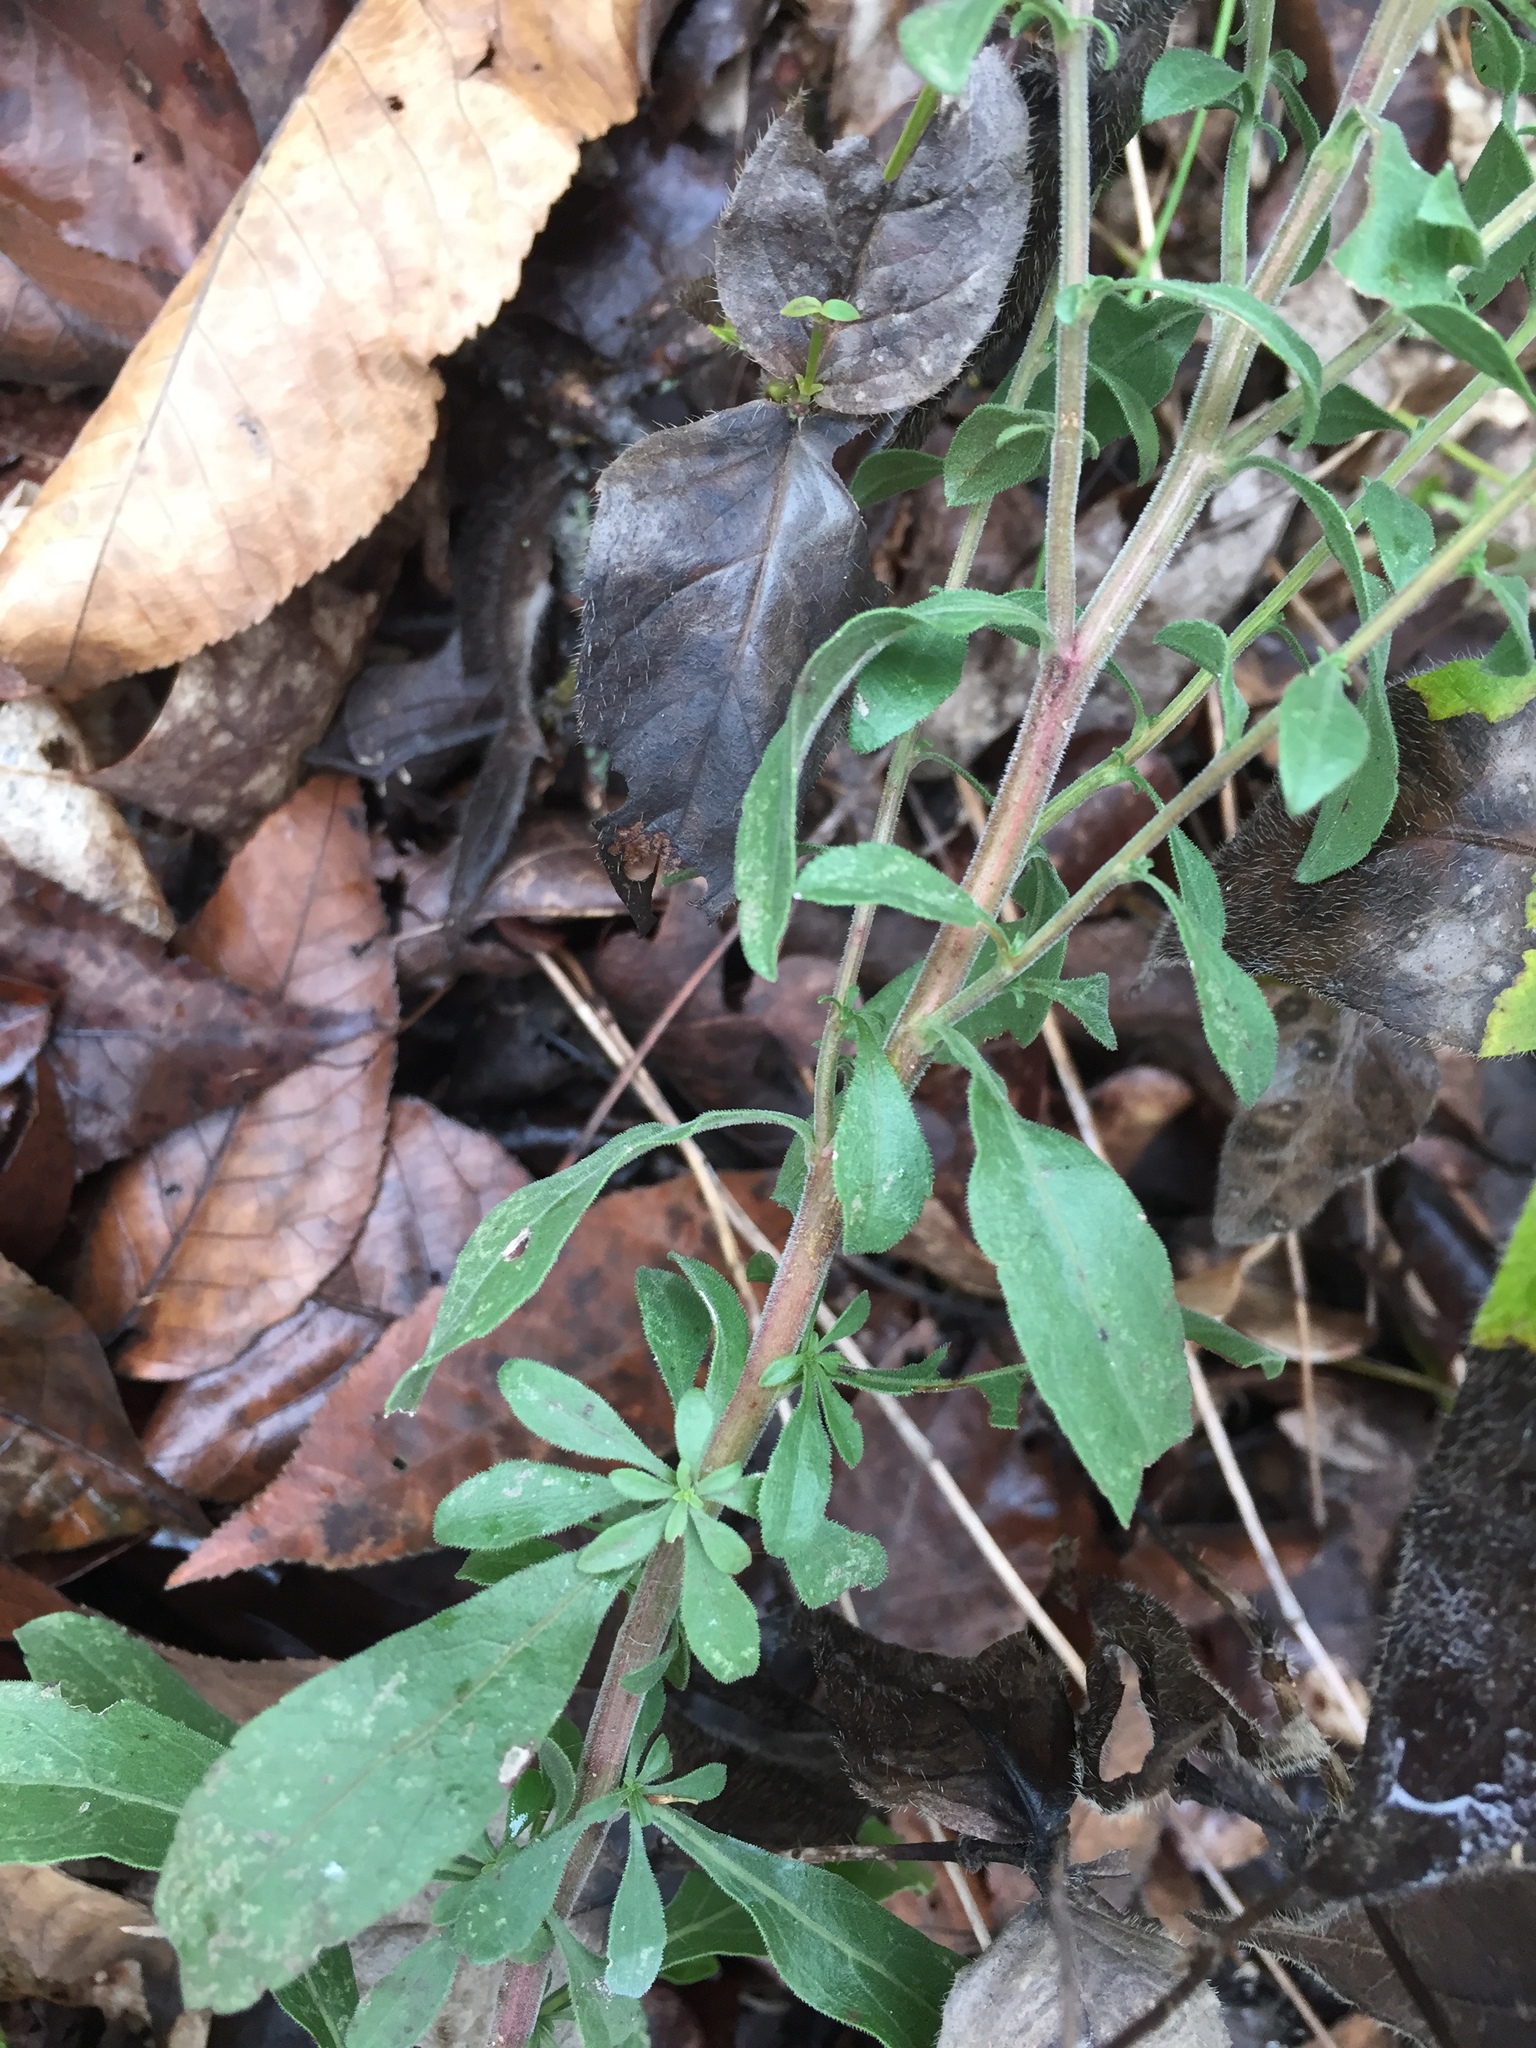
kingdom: Plantae
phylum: Tracheophyta
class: Magnoliopsida
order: Asterales
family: Asteraceae
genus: Solidago
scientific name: Solidago nemoralis
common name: Grey goldenrod
